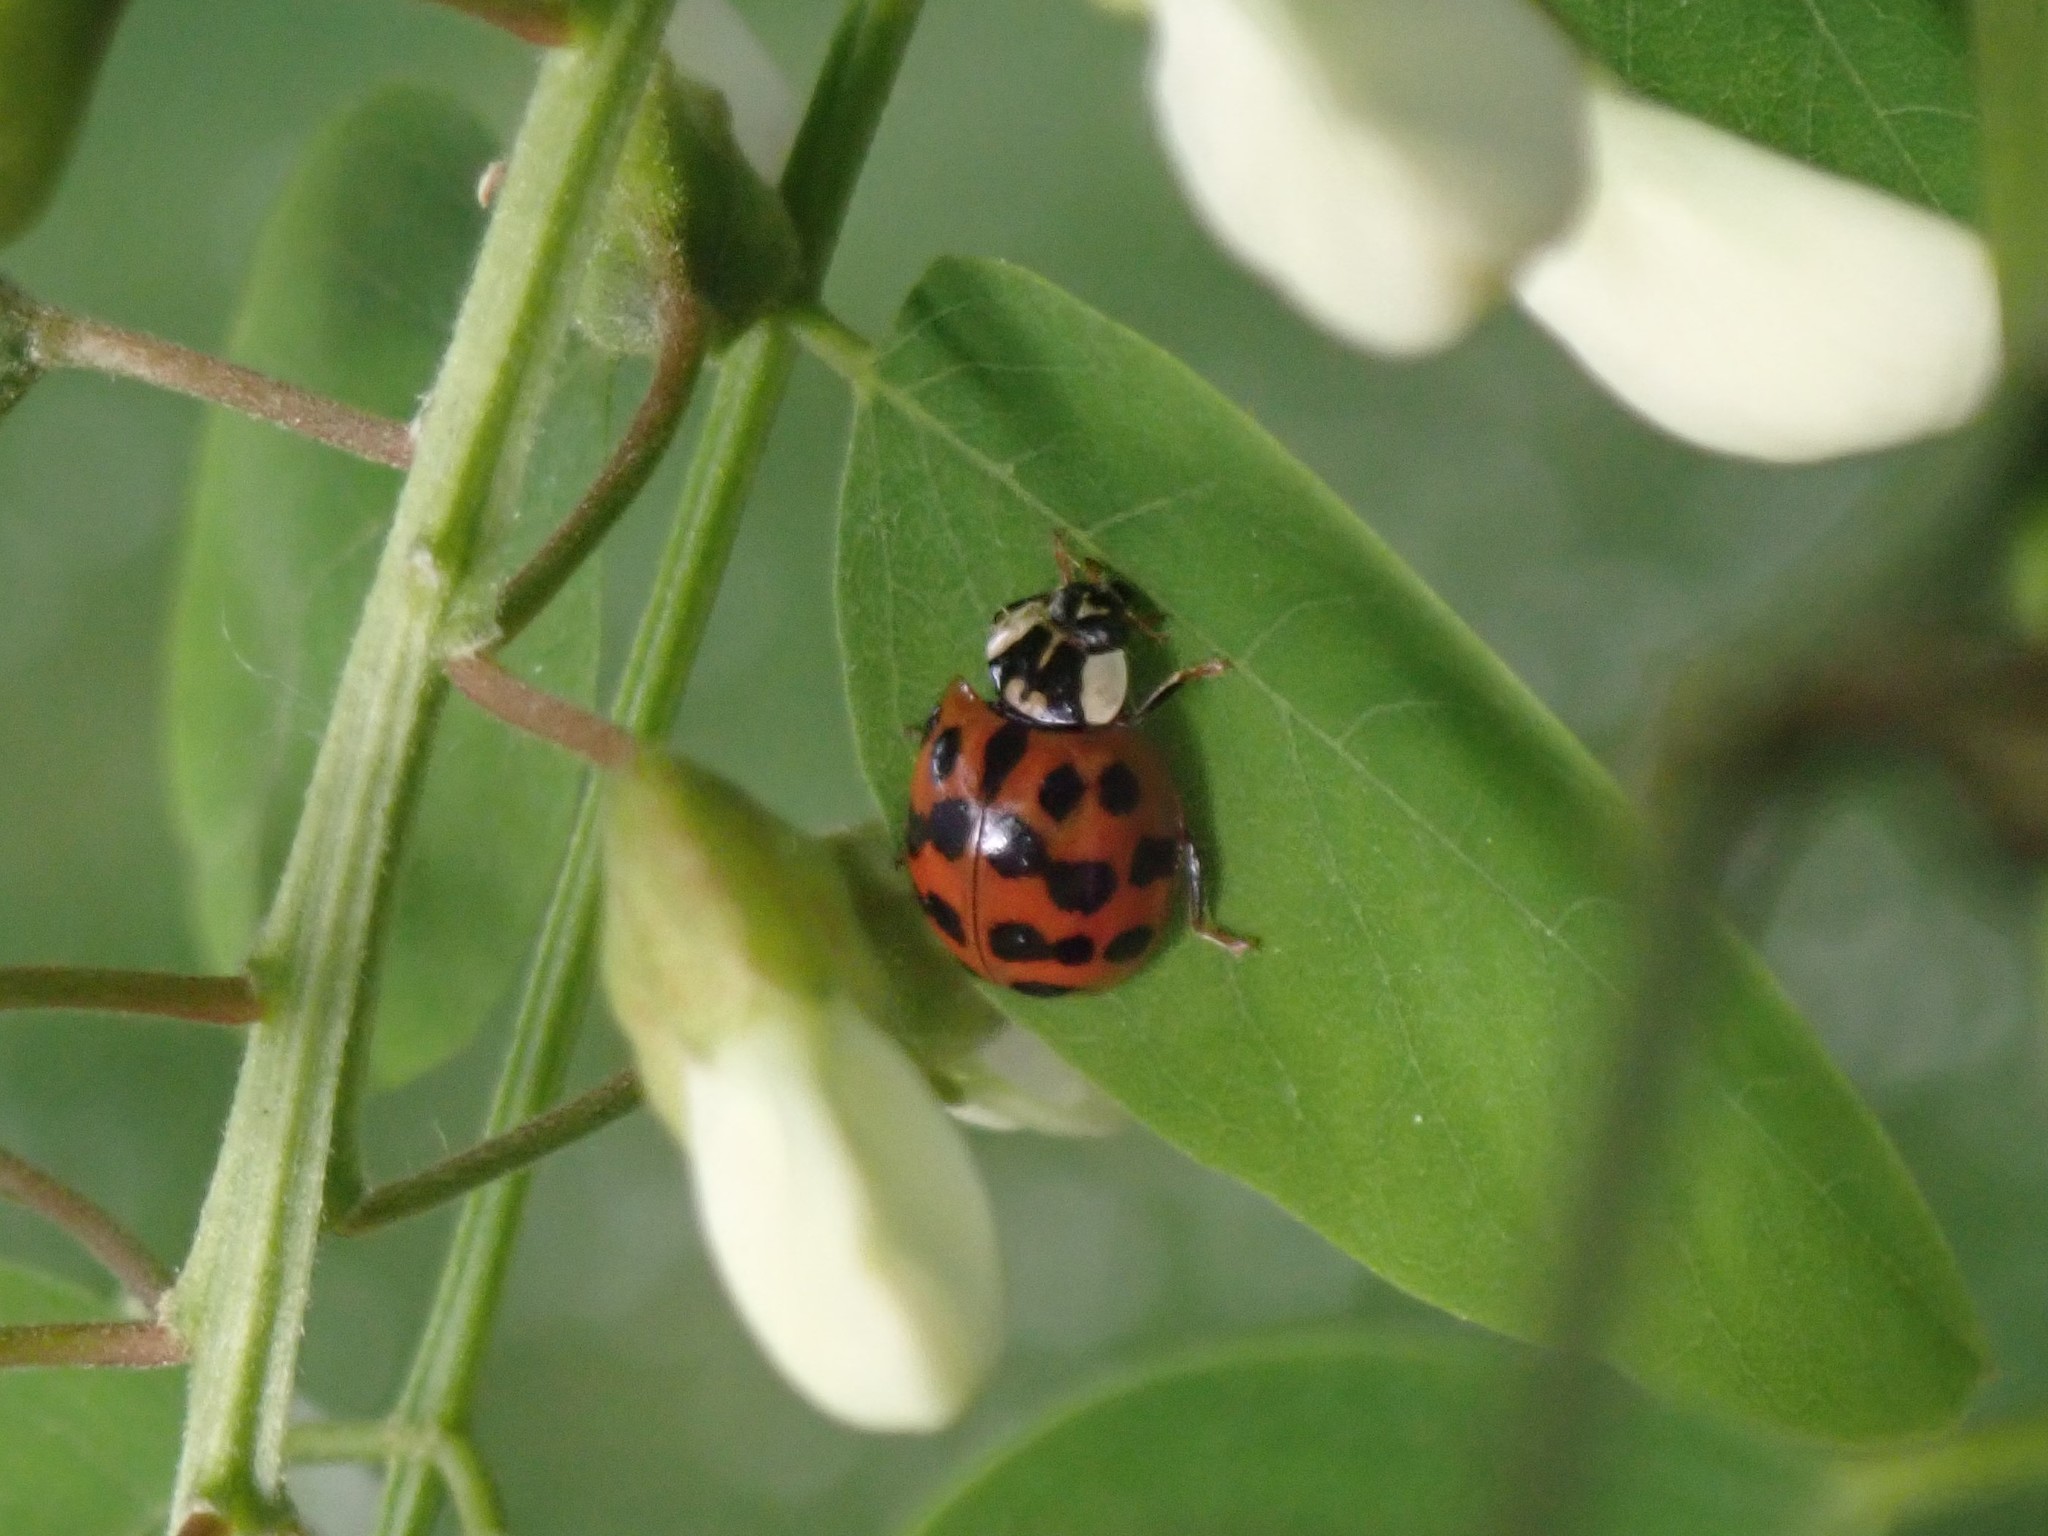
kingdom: Animalia
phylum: Arthropoda
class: Insecta
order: Coleoptera
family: Coccinellidae
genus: Harmonia
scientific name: Harmonia axyridis
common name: Harlequin ladybird
